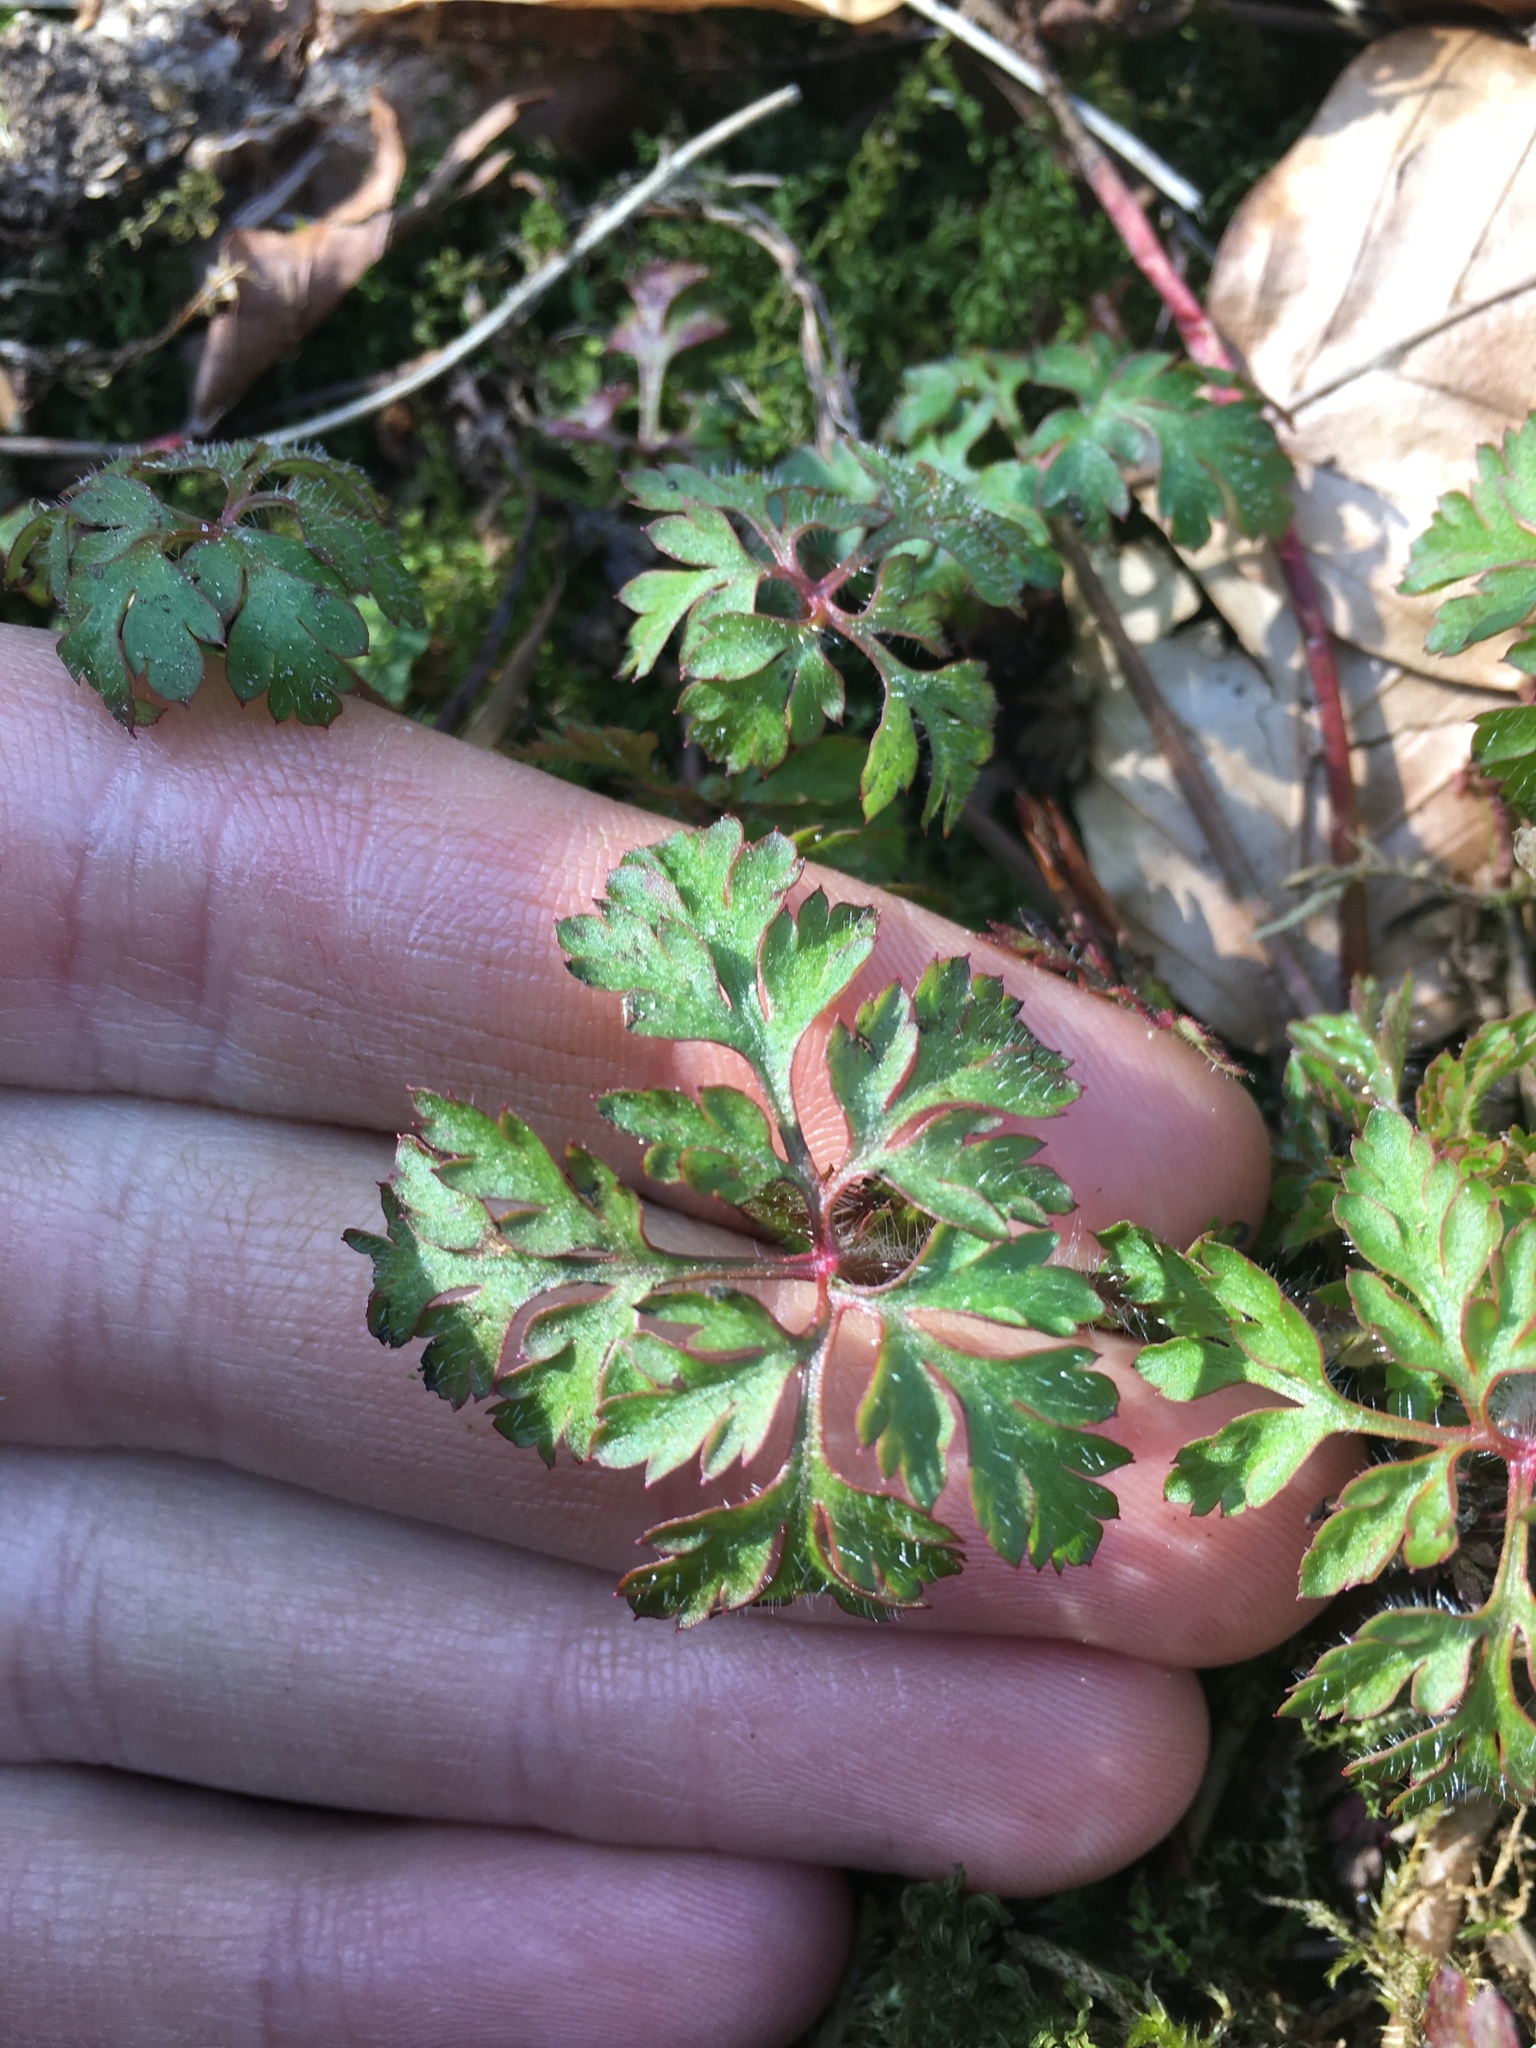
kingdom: Plantae
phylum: Tracheophyta
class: Magnoliopsida
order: Geraniales
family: Geraniaceae
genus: Geranium
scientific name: Geranium robertianum
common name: Herb-robert
